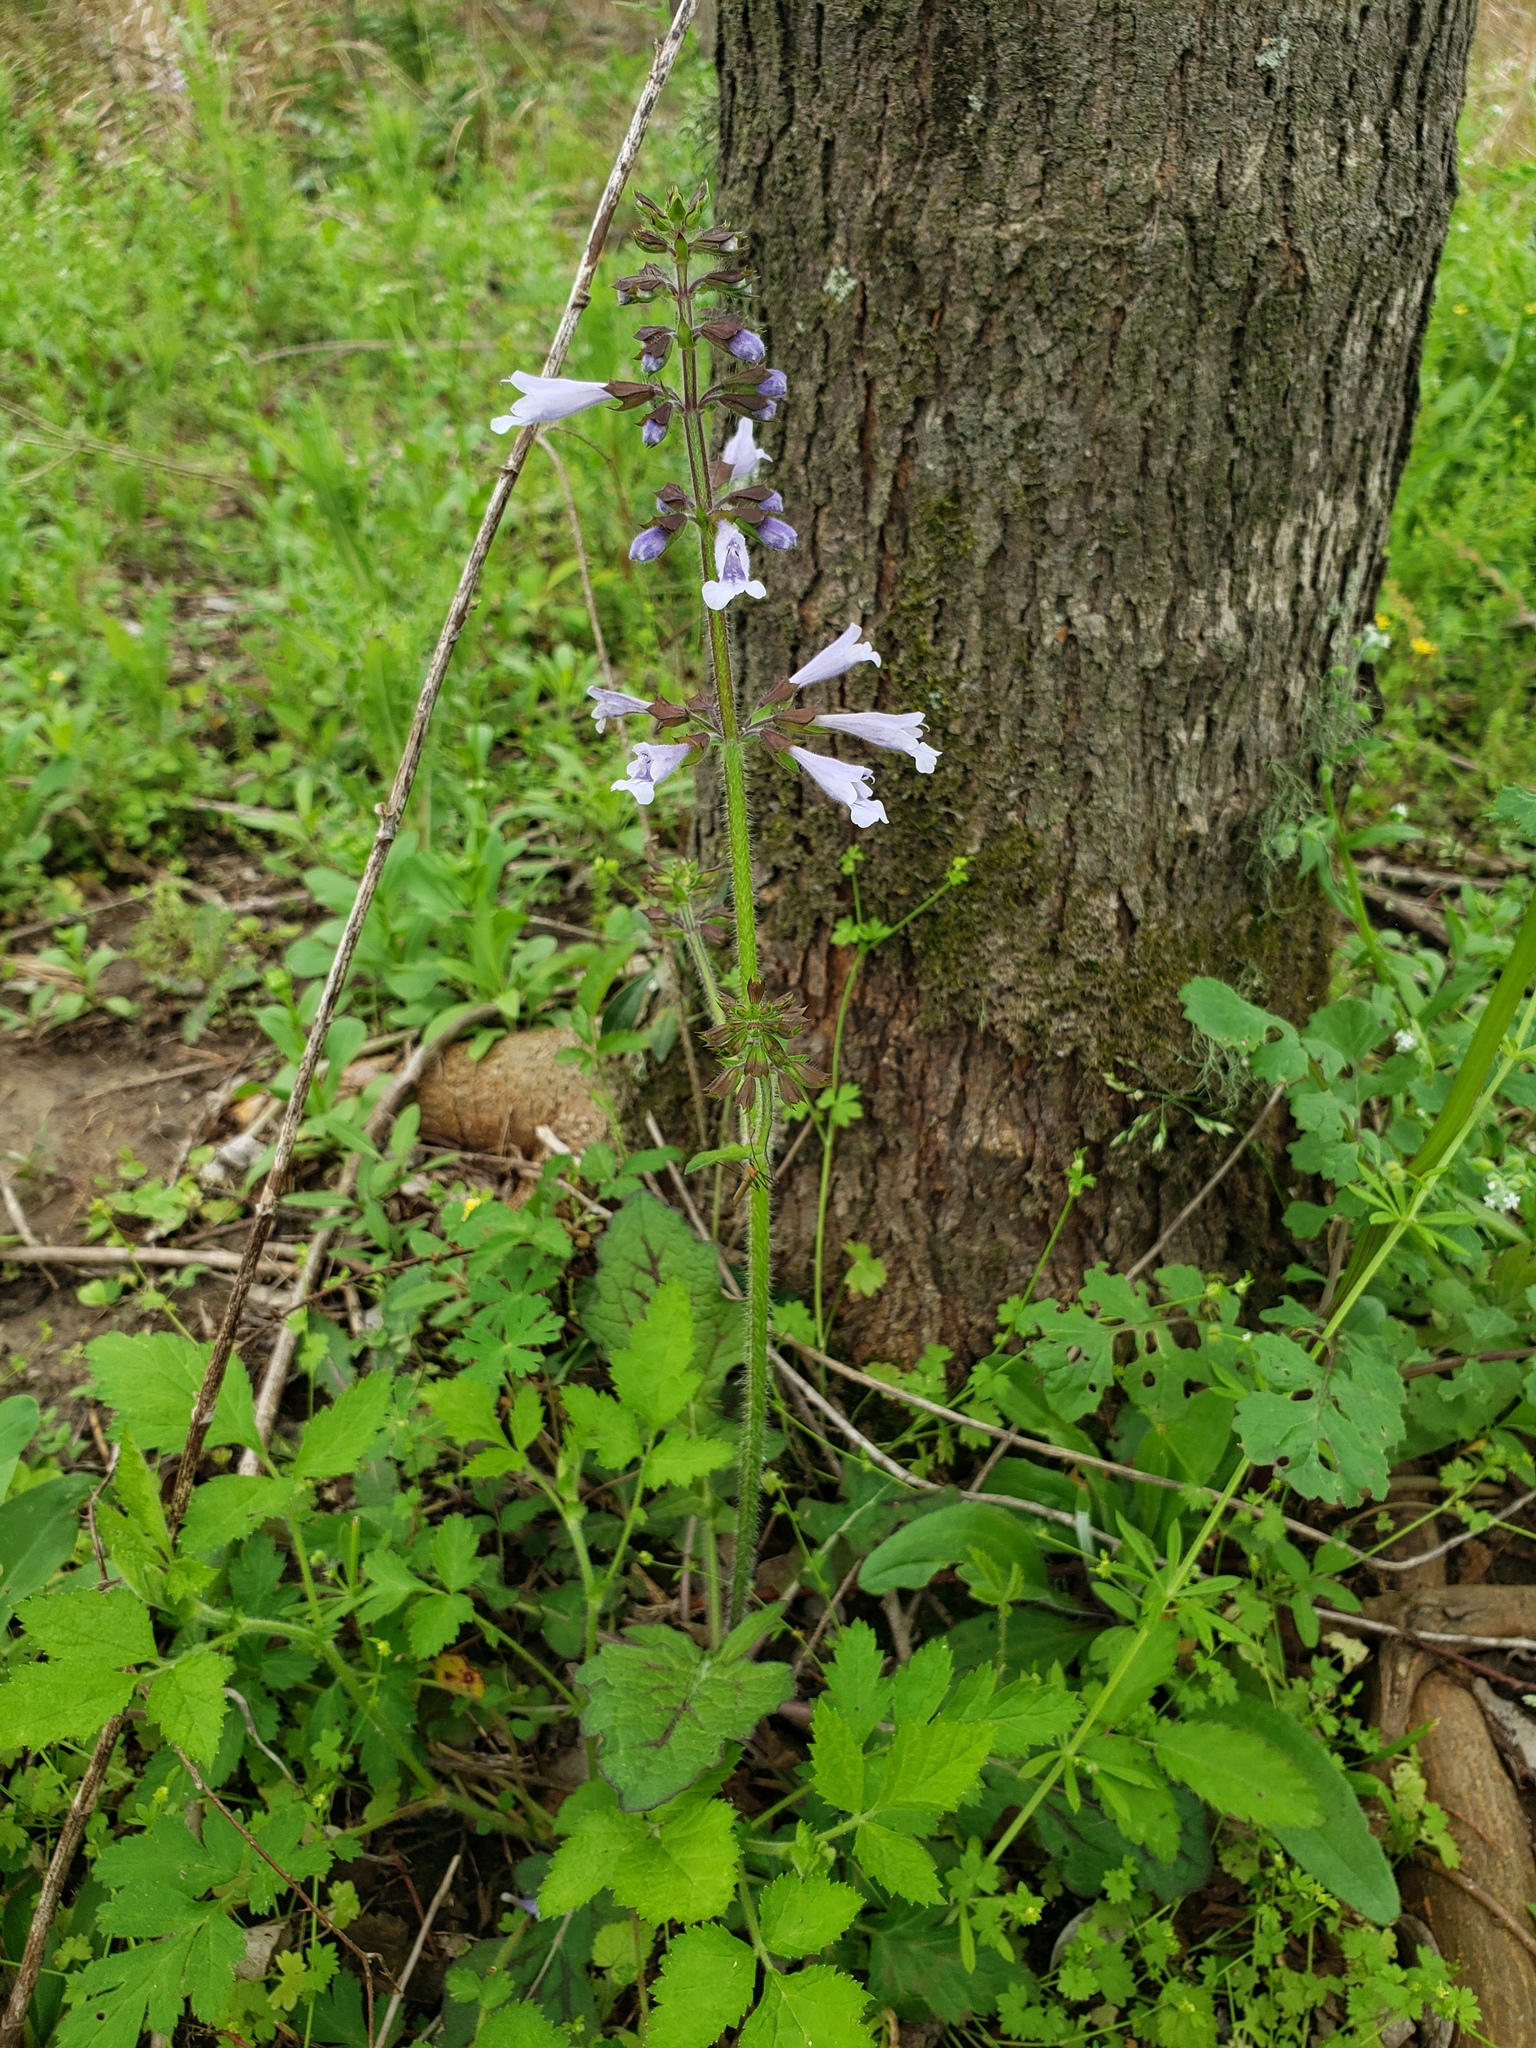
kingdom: Plantae
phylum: Tracheophyta
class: Magnoliopsida
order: Lamiales
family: Lamiaceae
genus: Salvia
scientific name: Salvia lyrata
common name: Cancerweed
